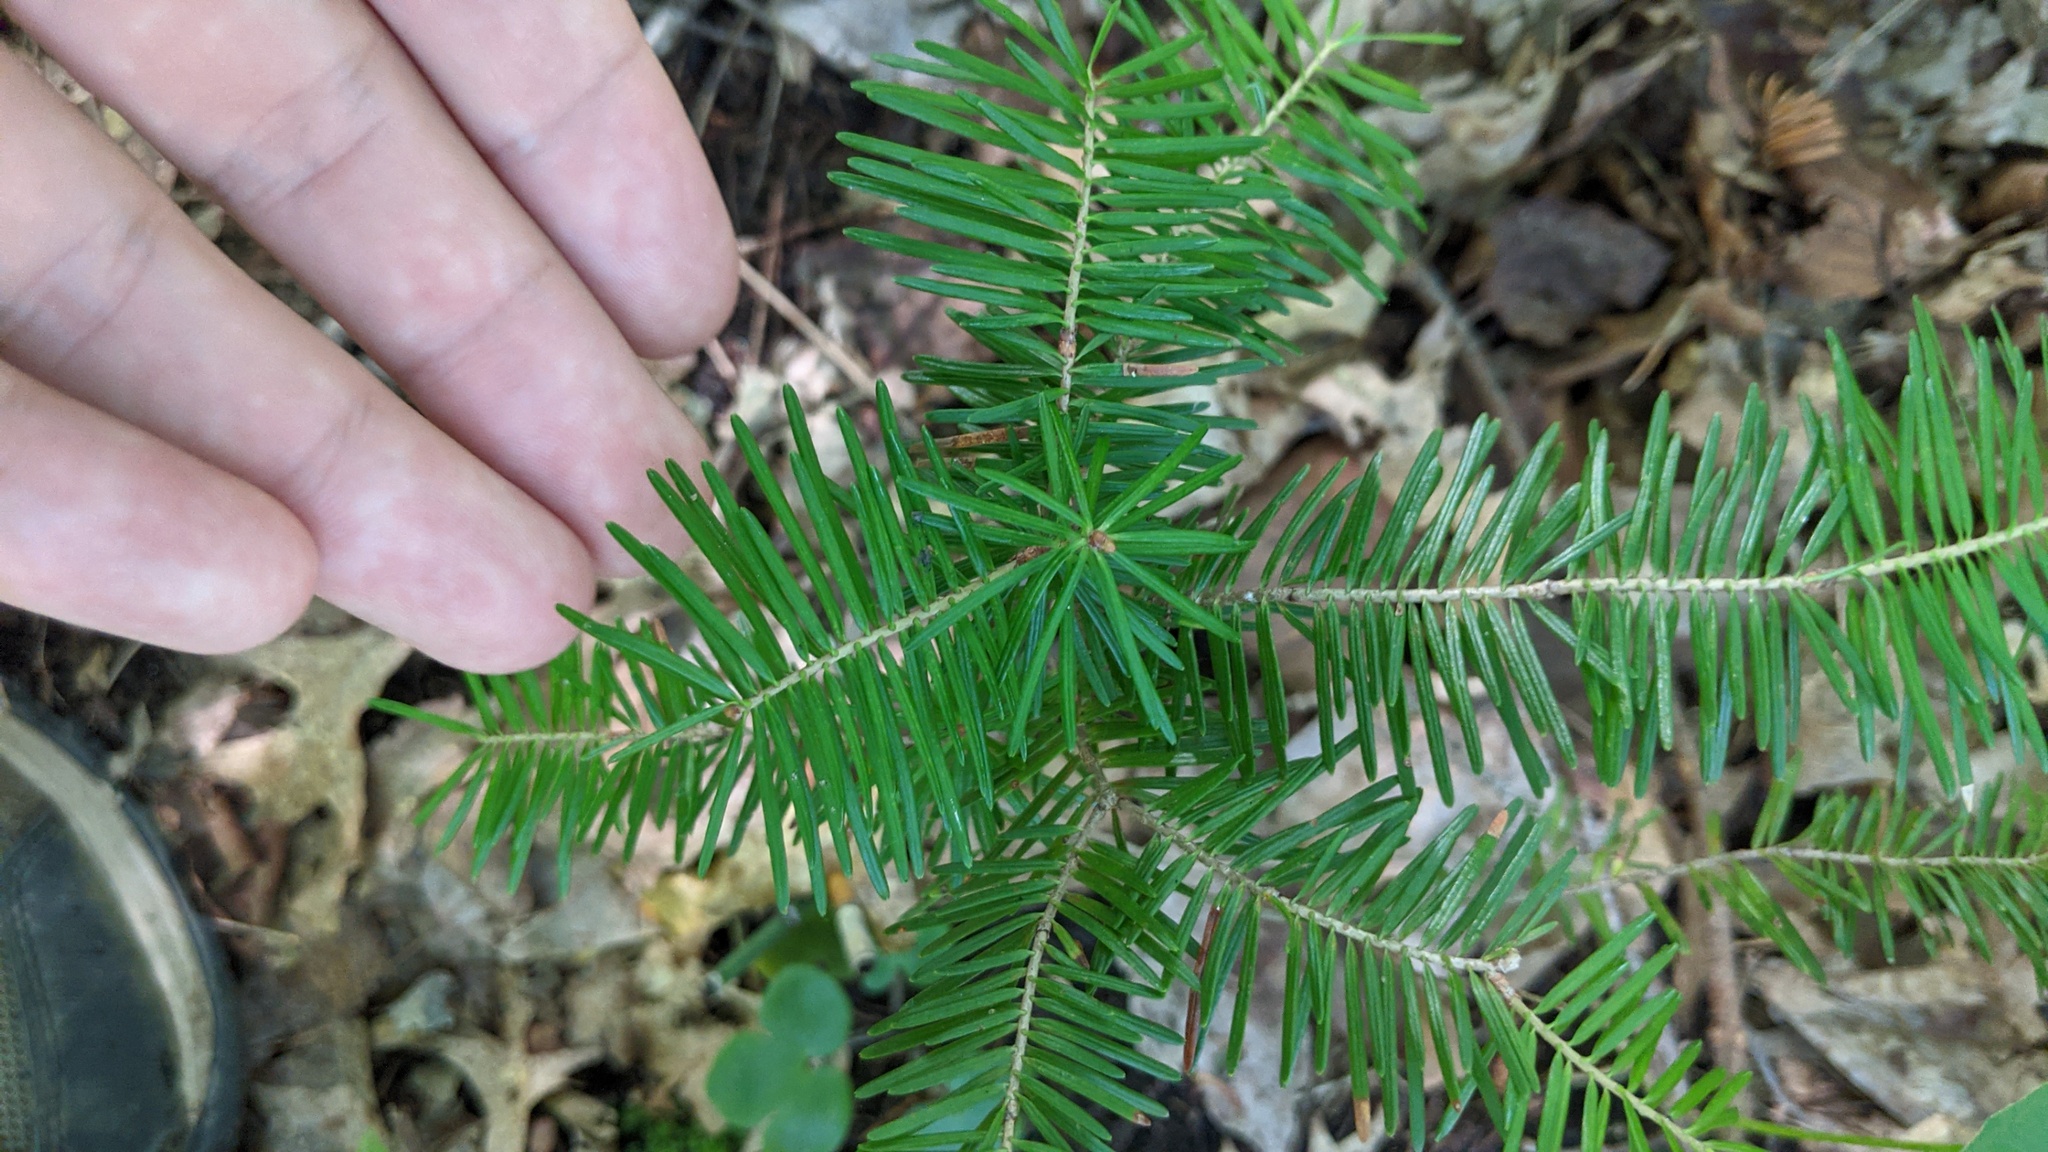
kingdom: Plantae
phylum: Tracheophyta
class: Pinopsida
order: Pinales
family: Pinaceae
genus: Abies
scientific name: Abies balsamea
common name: Balsam fir
